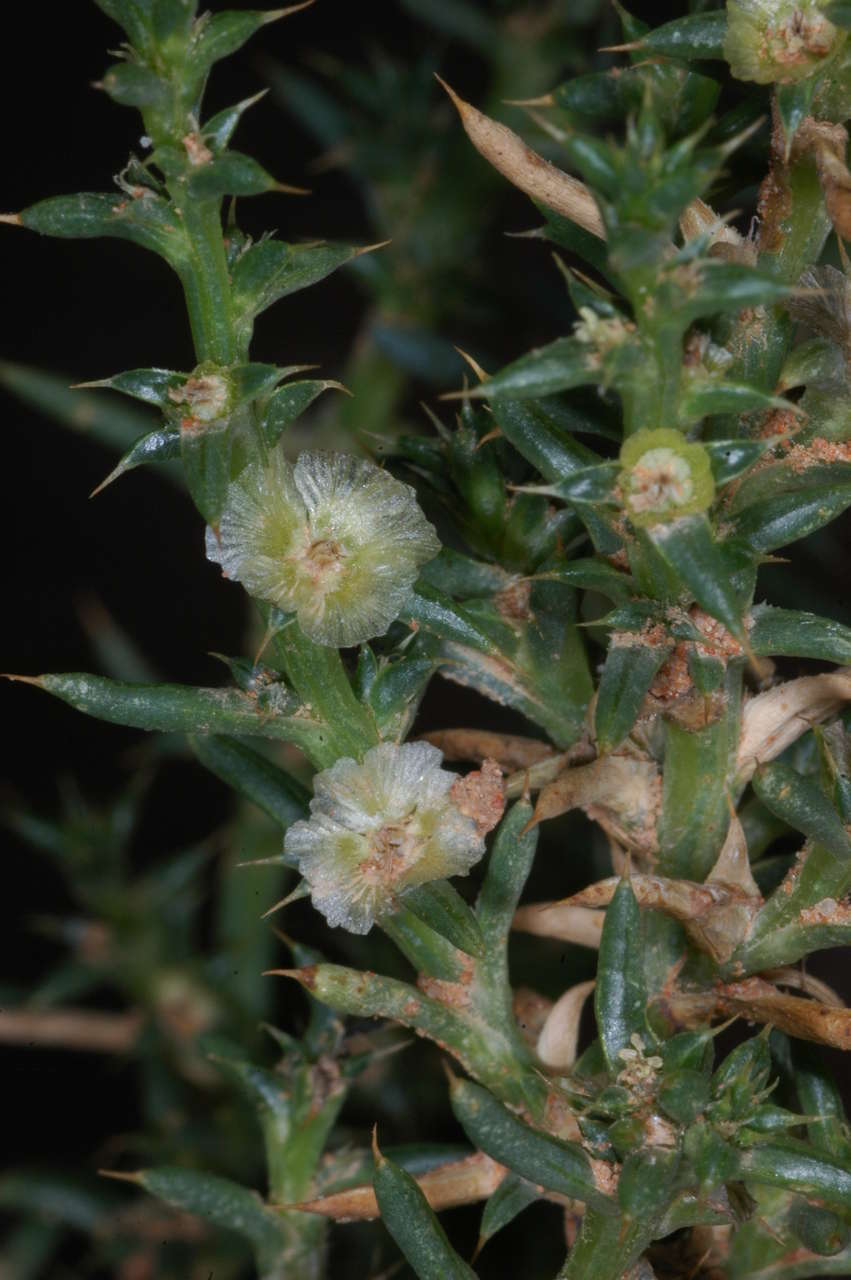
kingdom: Plantae
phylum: Tracheophyta
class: Magnoliopsida
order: Caryophyllales
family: Amaranthaceae
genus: Salsola
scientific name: Salsola australis
